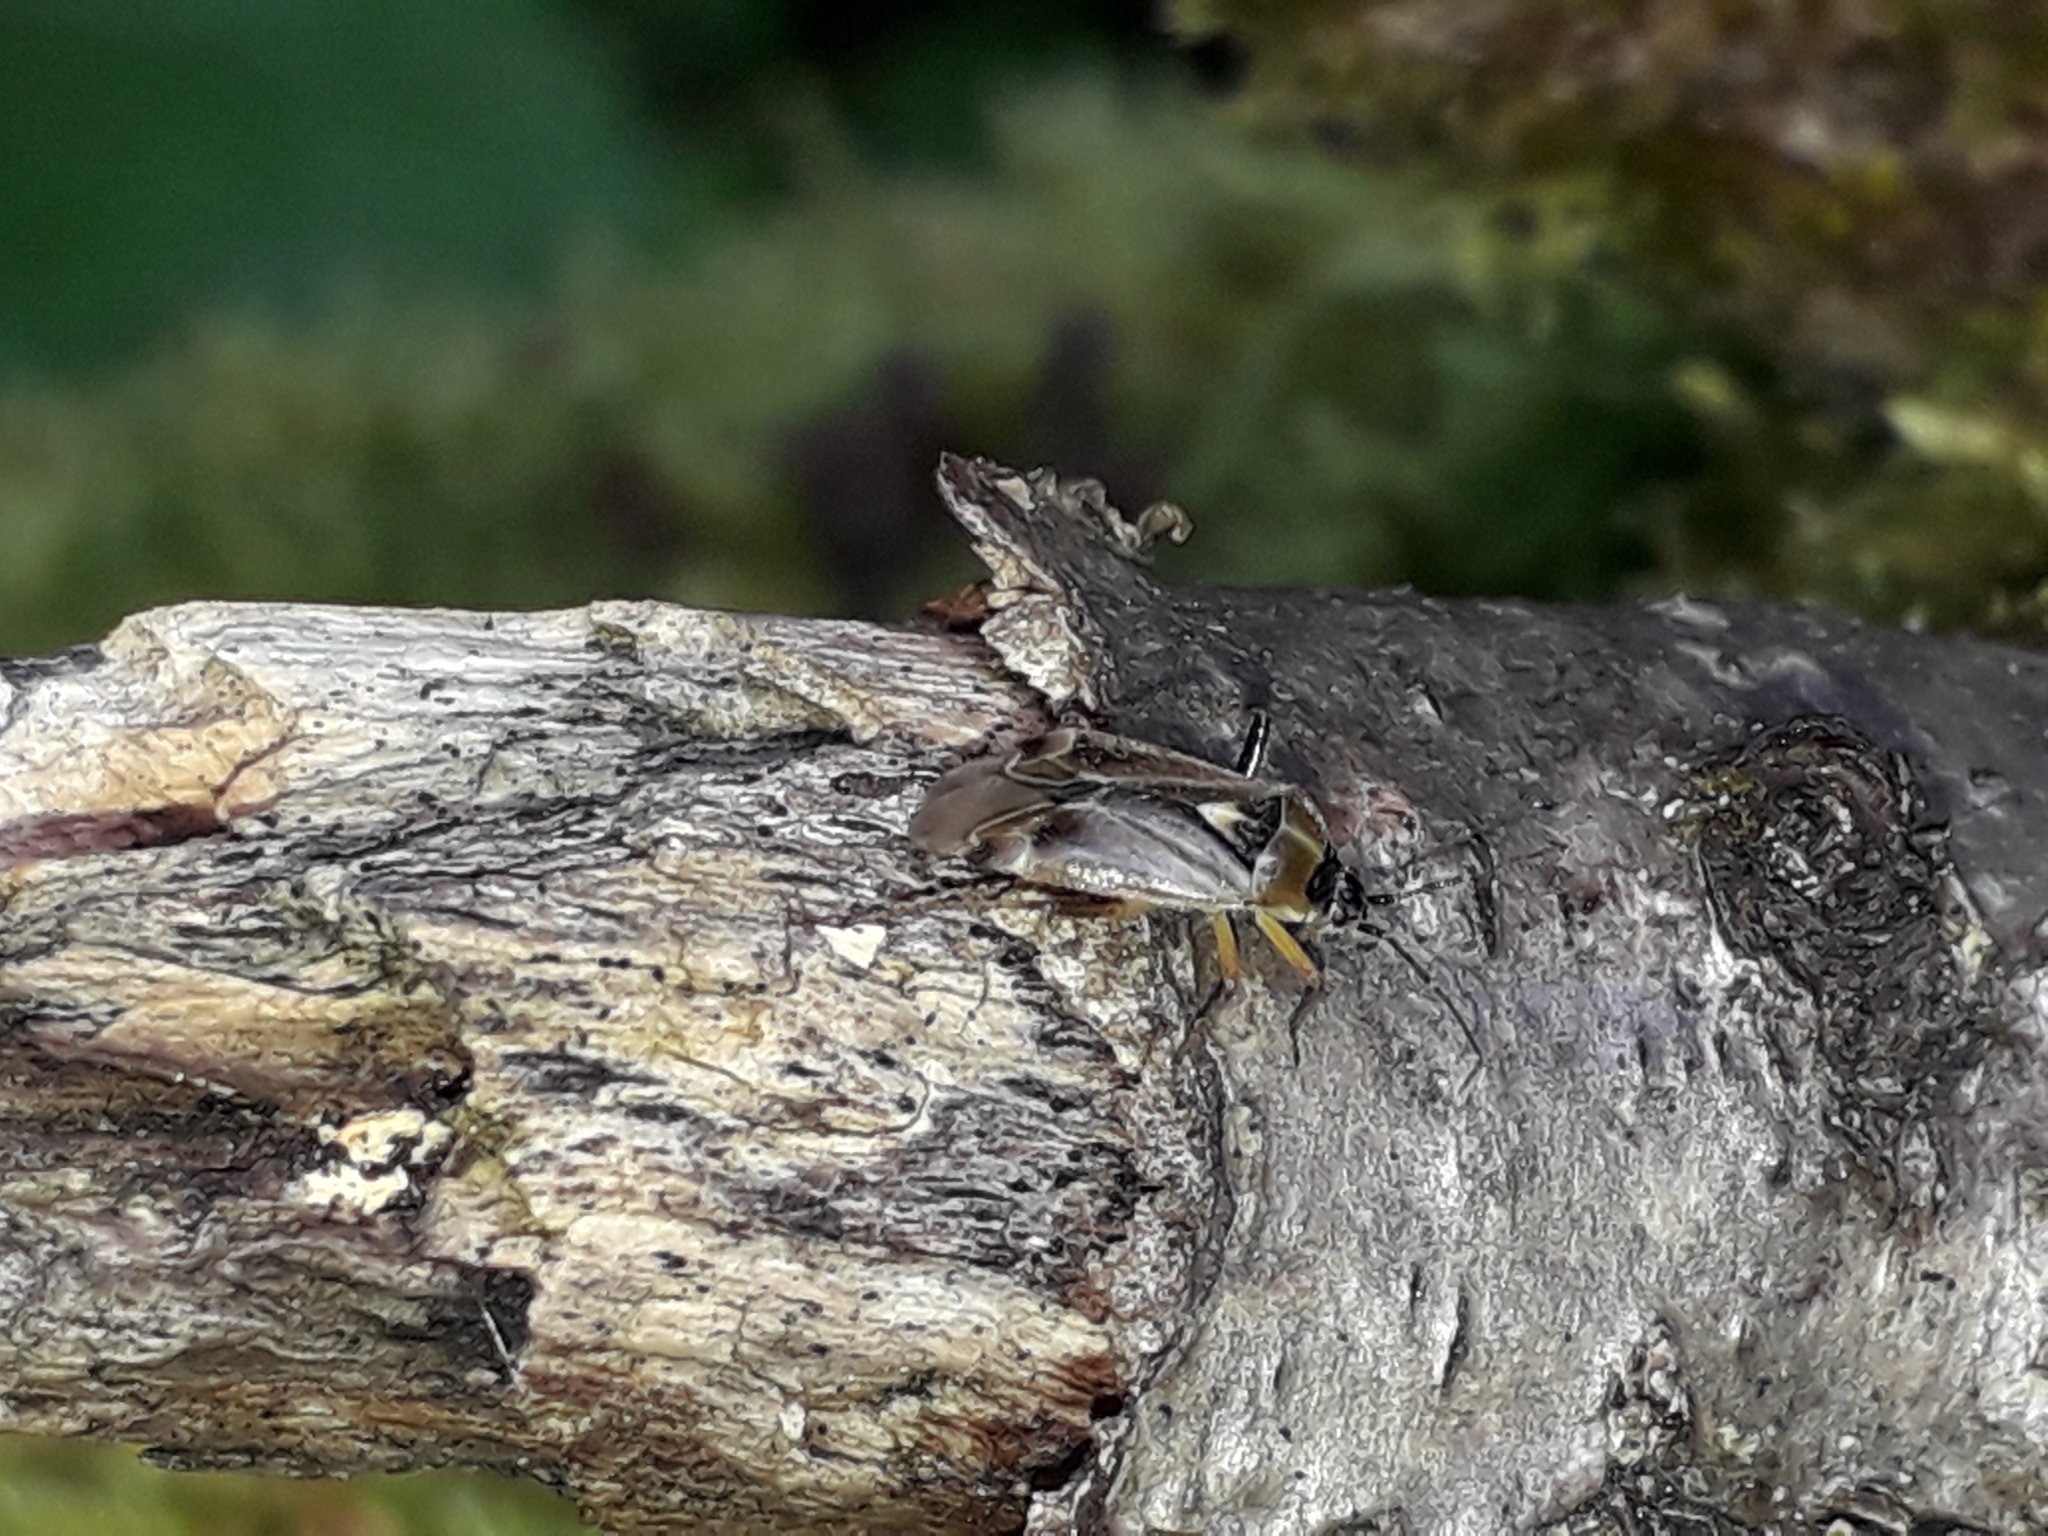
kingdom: Animalia
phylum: Arthropoda
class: Insecta
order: Hemiptera
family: Miridae
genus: Harpocera
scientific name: Harpocera thoracica
